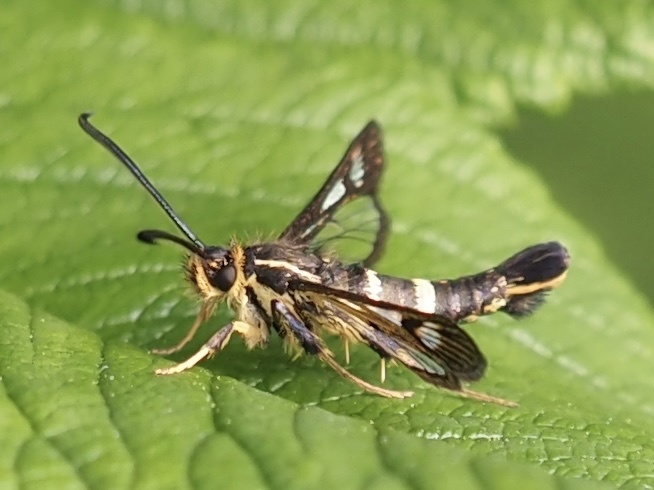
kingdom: Animalia
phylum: Arthropoda
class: Insecta
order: Lepidoptera
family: Sesiidae
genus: Synanthedon
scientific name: Synanthedon bibionipennis
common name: Strawberry crown moth
